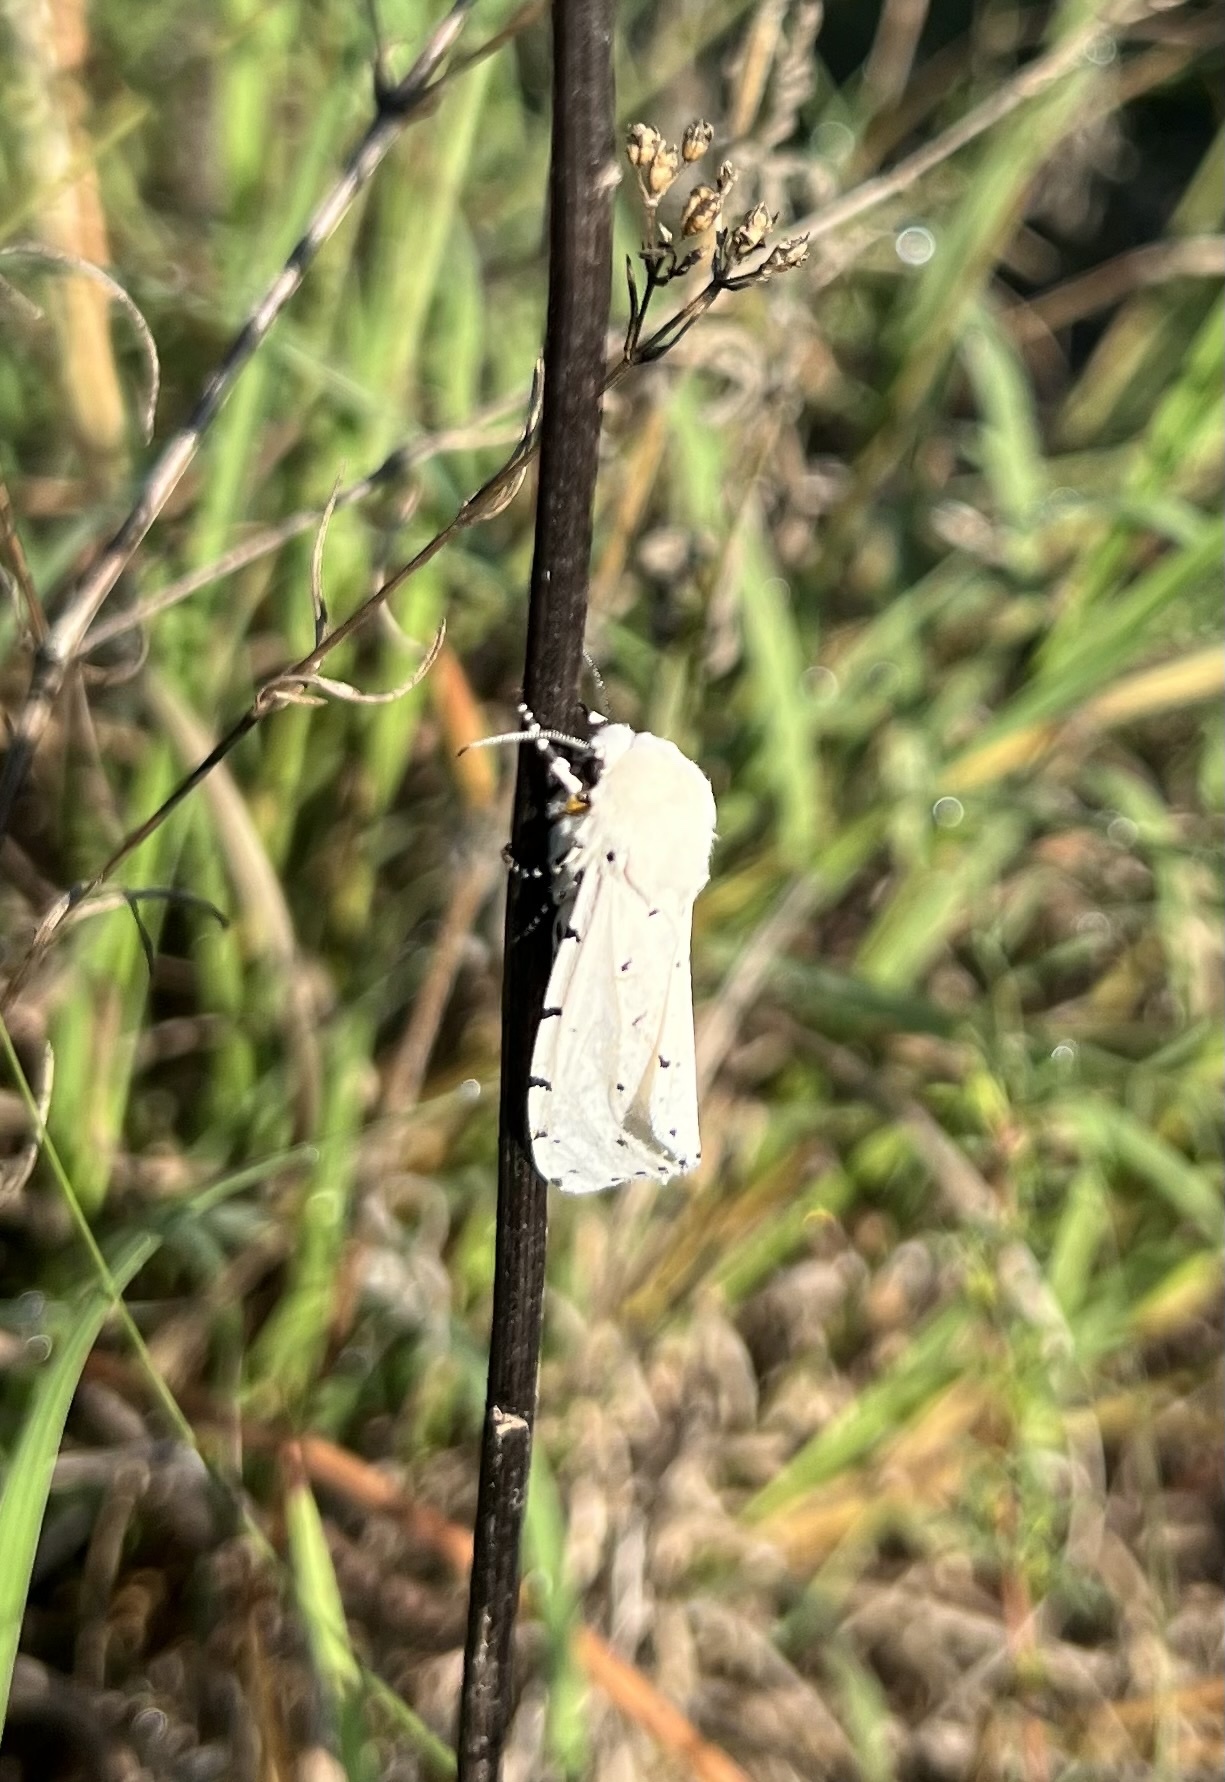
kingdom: Animalia
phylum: Arthropoda
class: Insecta
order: Lepidoptera
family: Erebidae
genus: Estigmene
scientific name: Estigmene acrea
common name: Salt marsh moth
